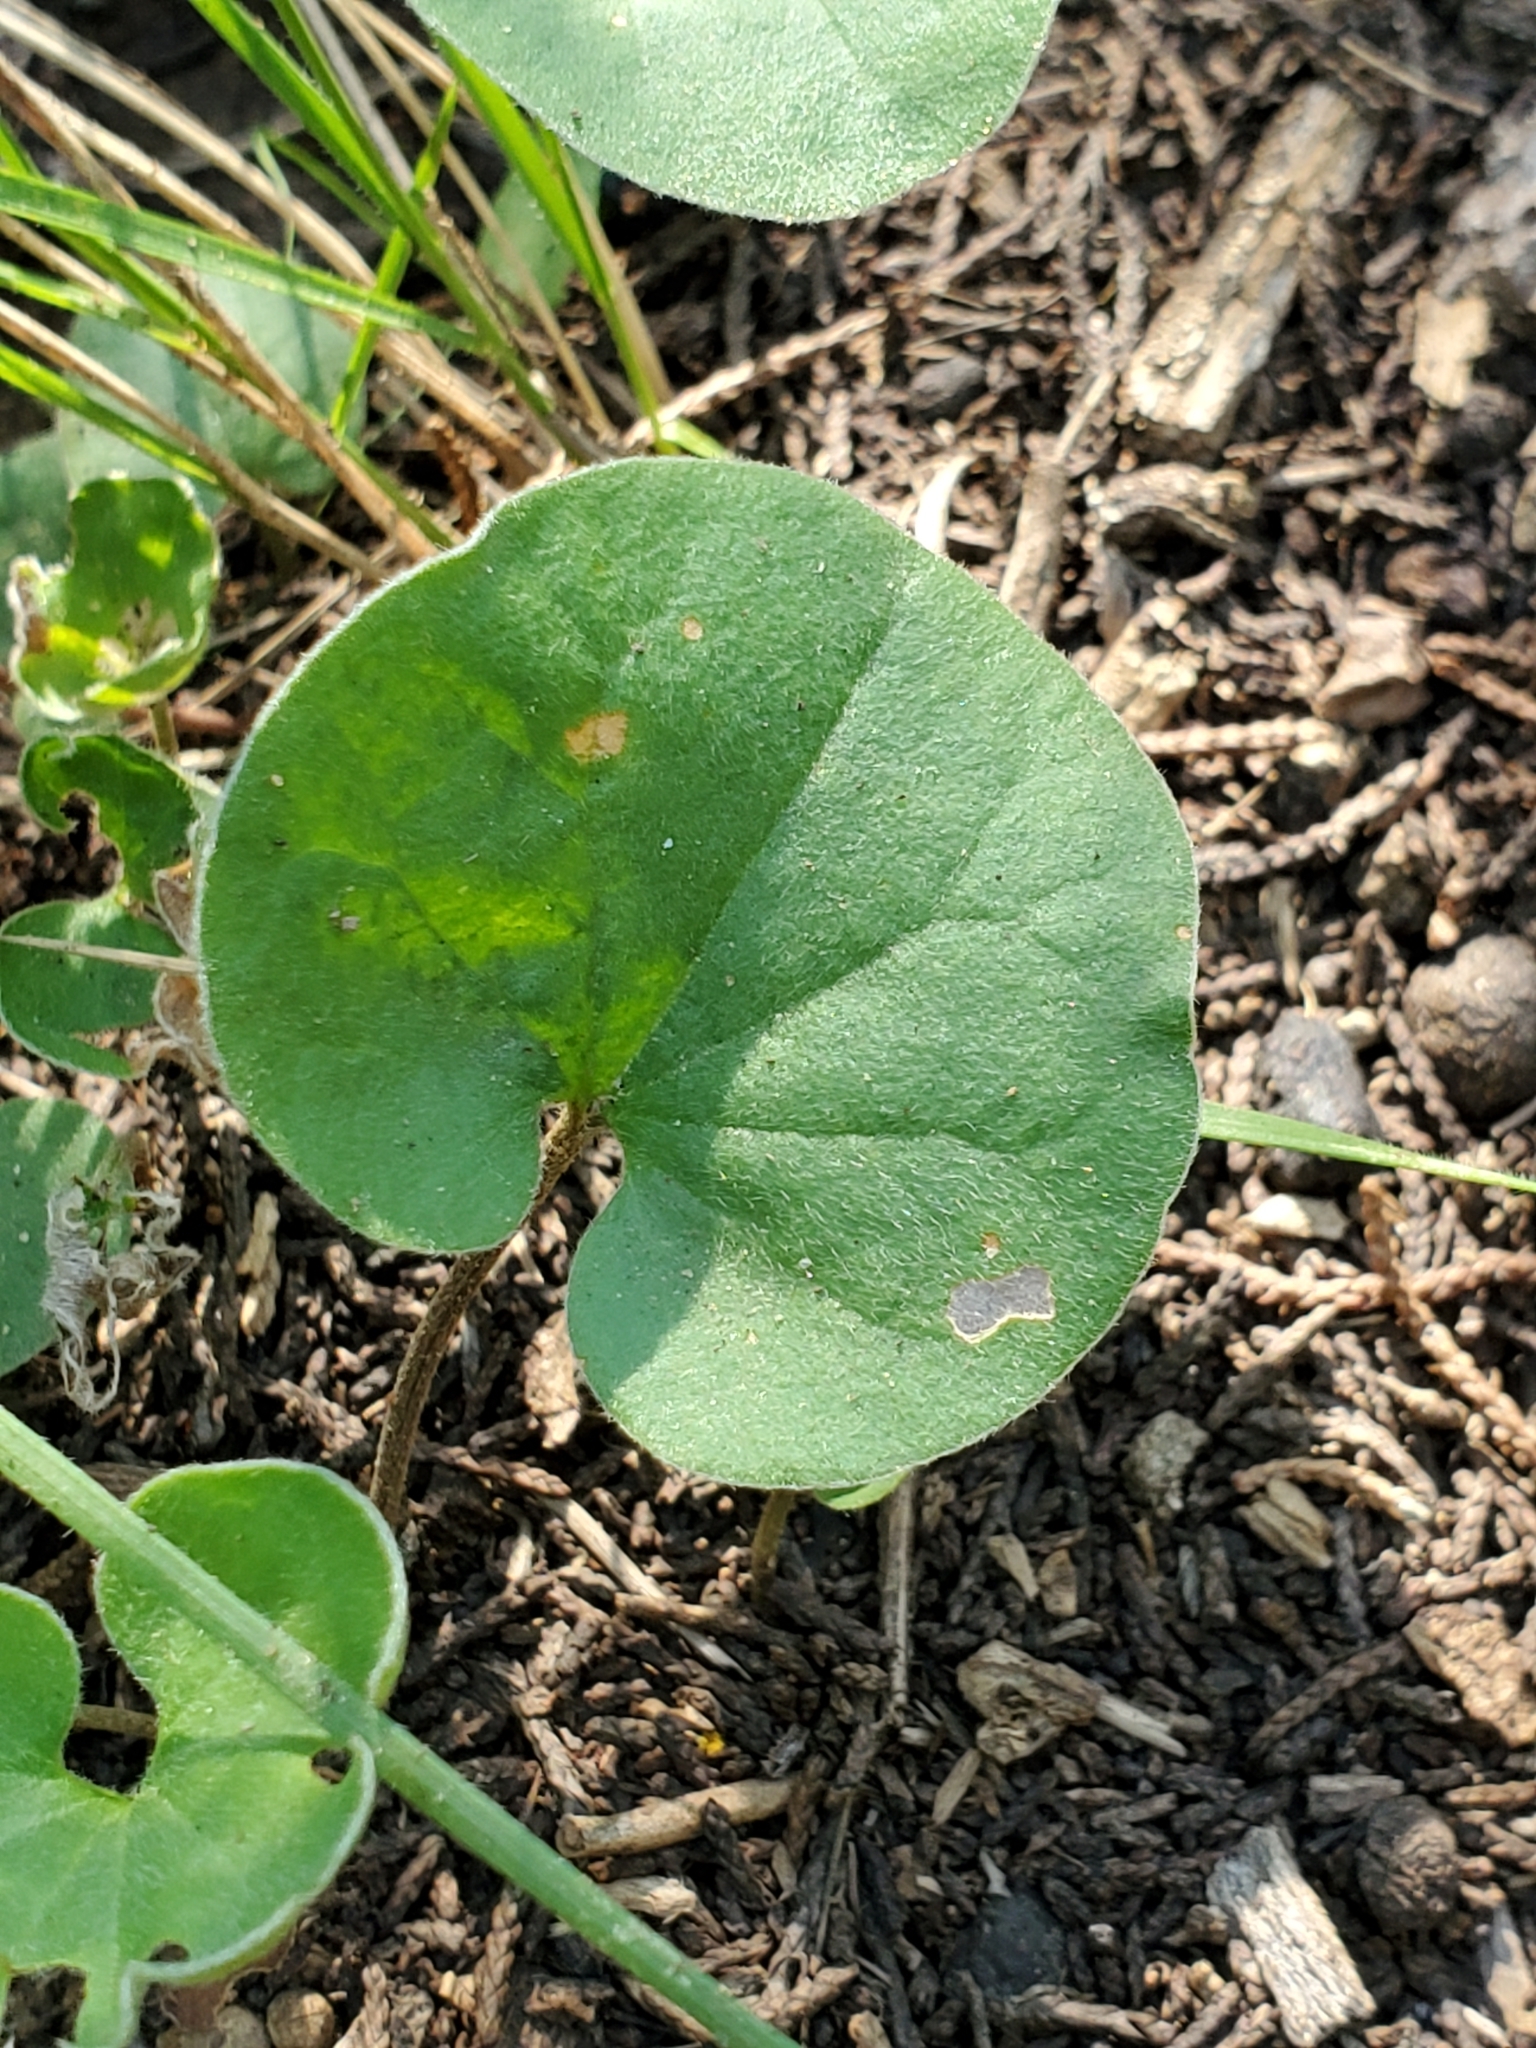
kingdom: Plantae
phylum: Tracheophyta
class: Magnoliopsida
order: Solanales
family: Convolvulaceae
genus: Dichondra
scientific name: Dichondra carolinensis
